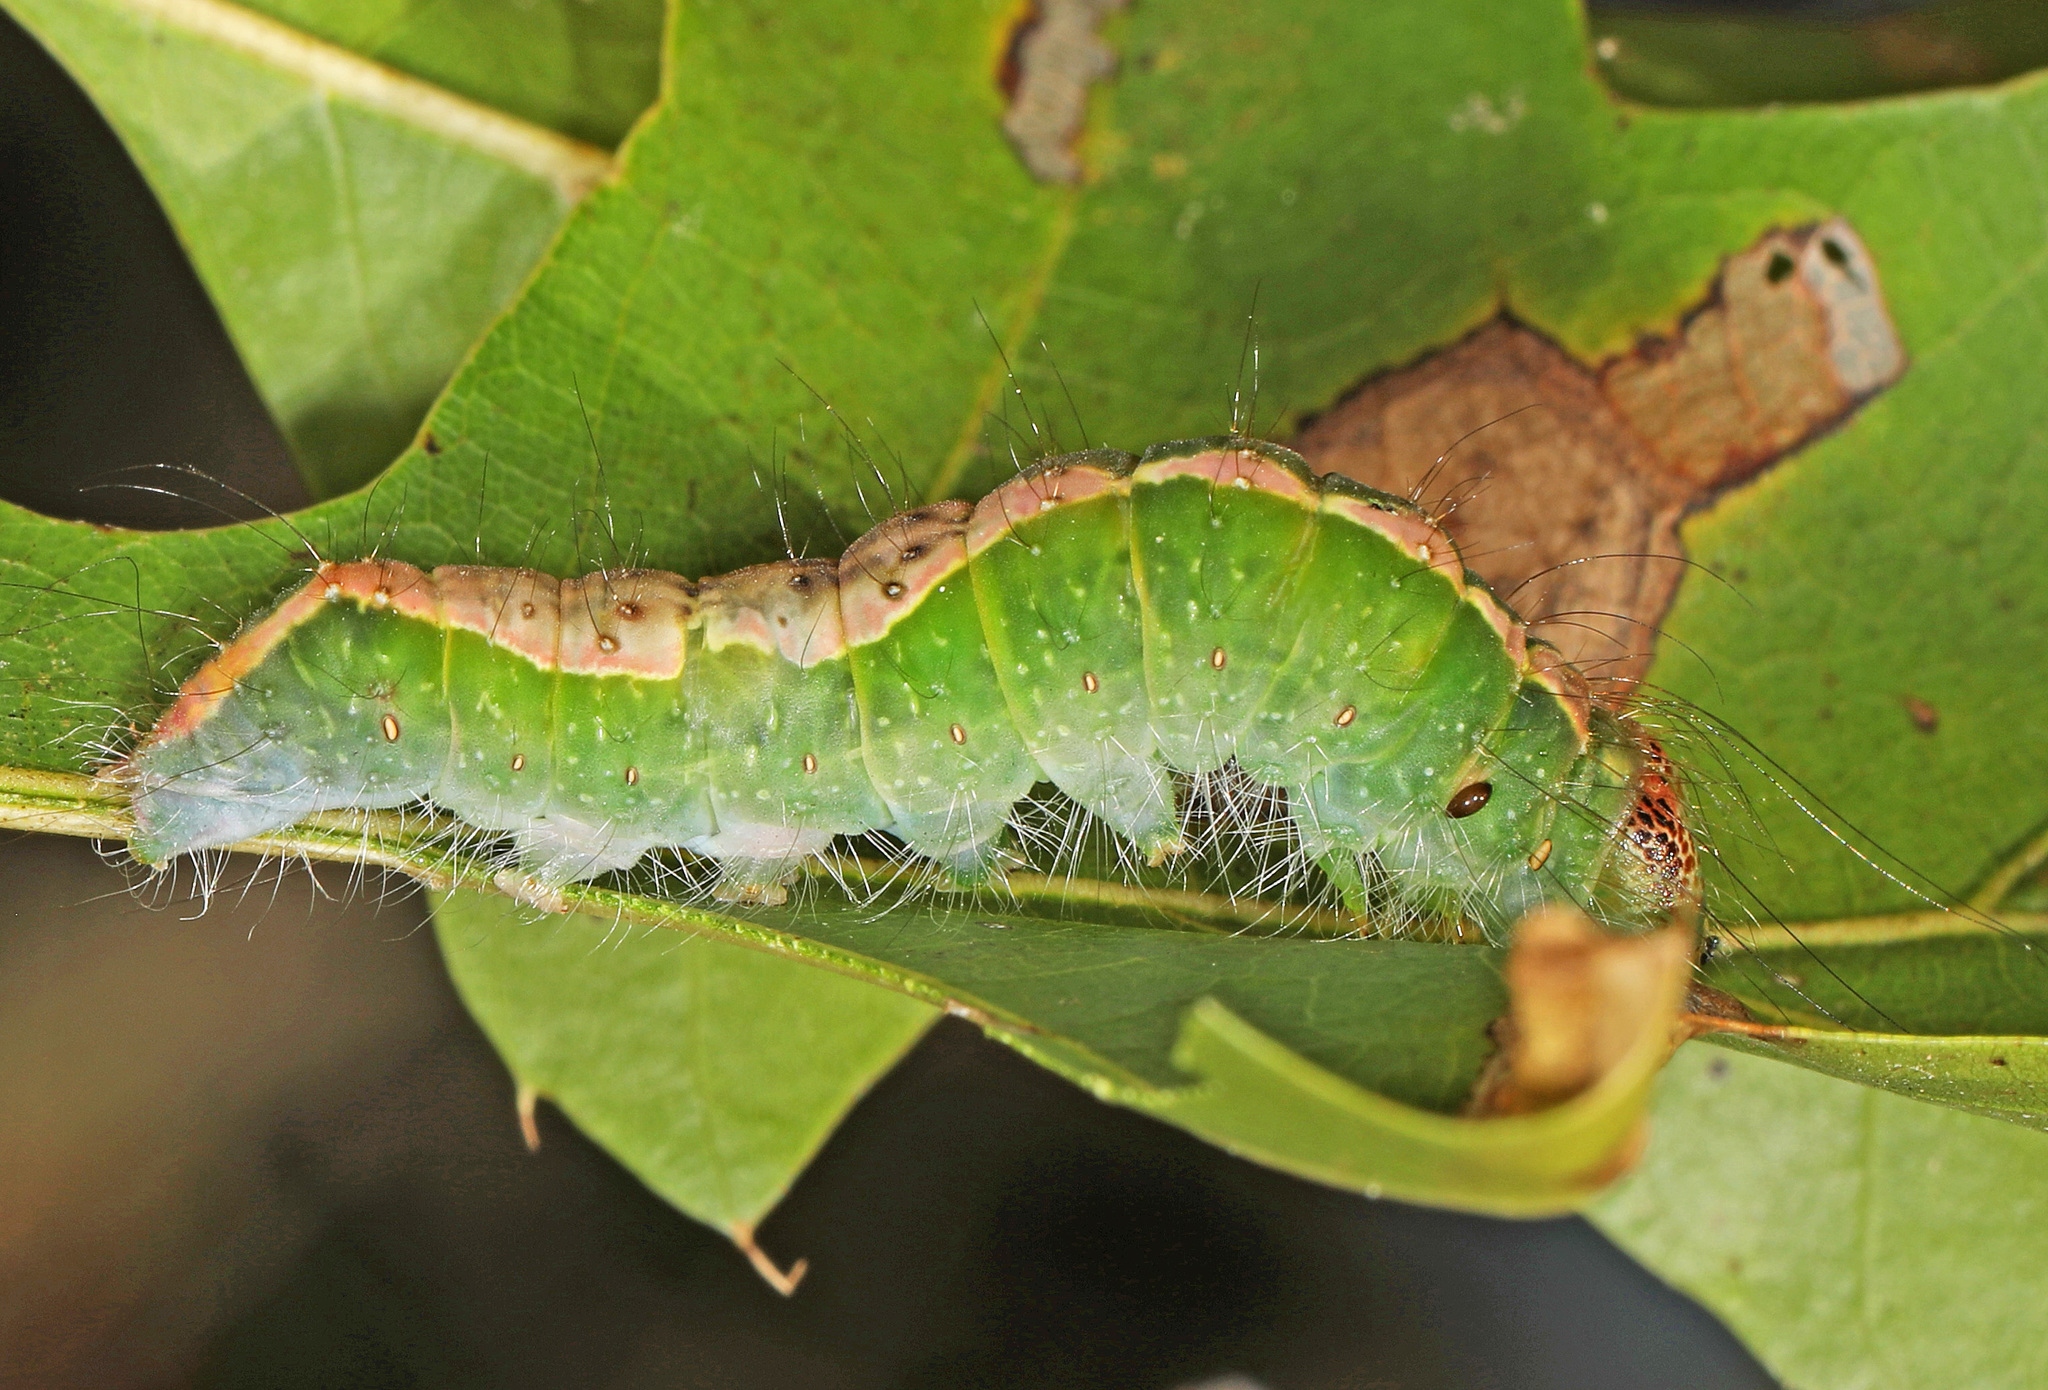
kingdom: Animalia
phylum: Arthropoda
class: Insecta
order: Lepidoptera
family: Noctuidae
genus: Acronicta
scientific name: Acronicta lithospila
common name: Streaked dagger
